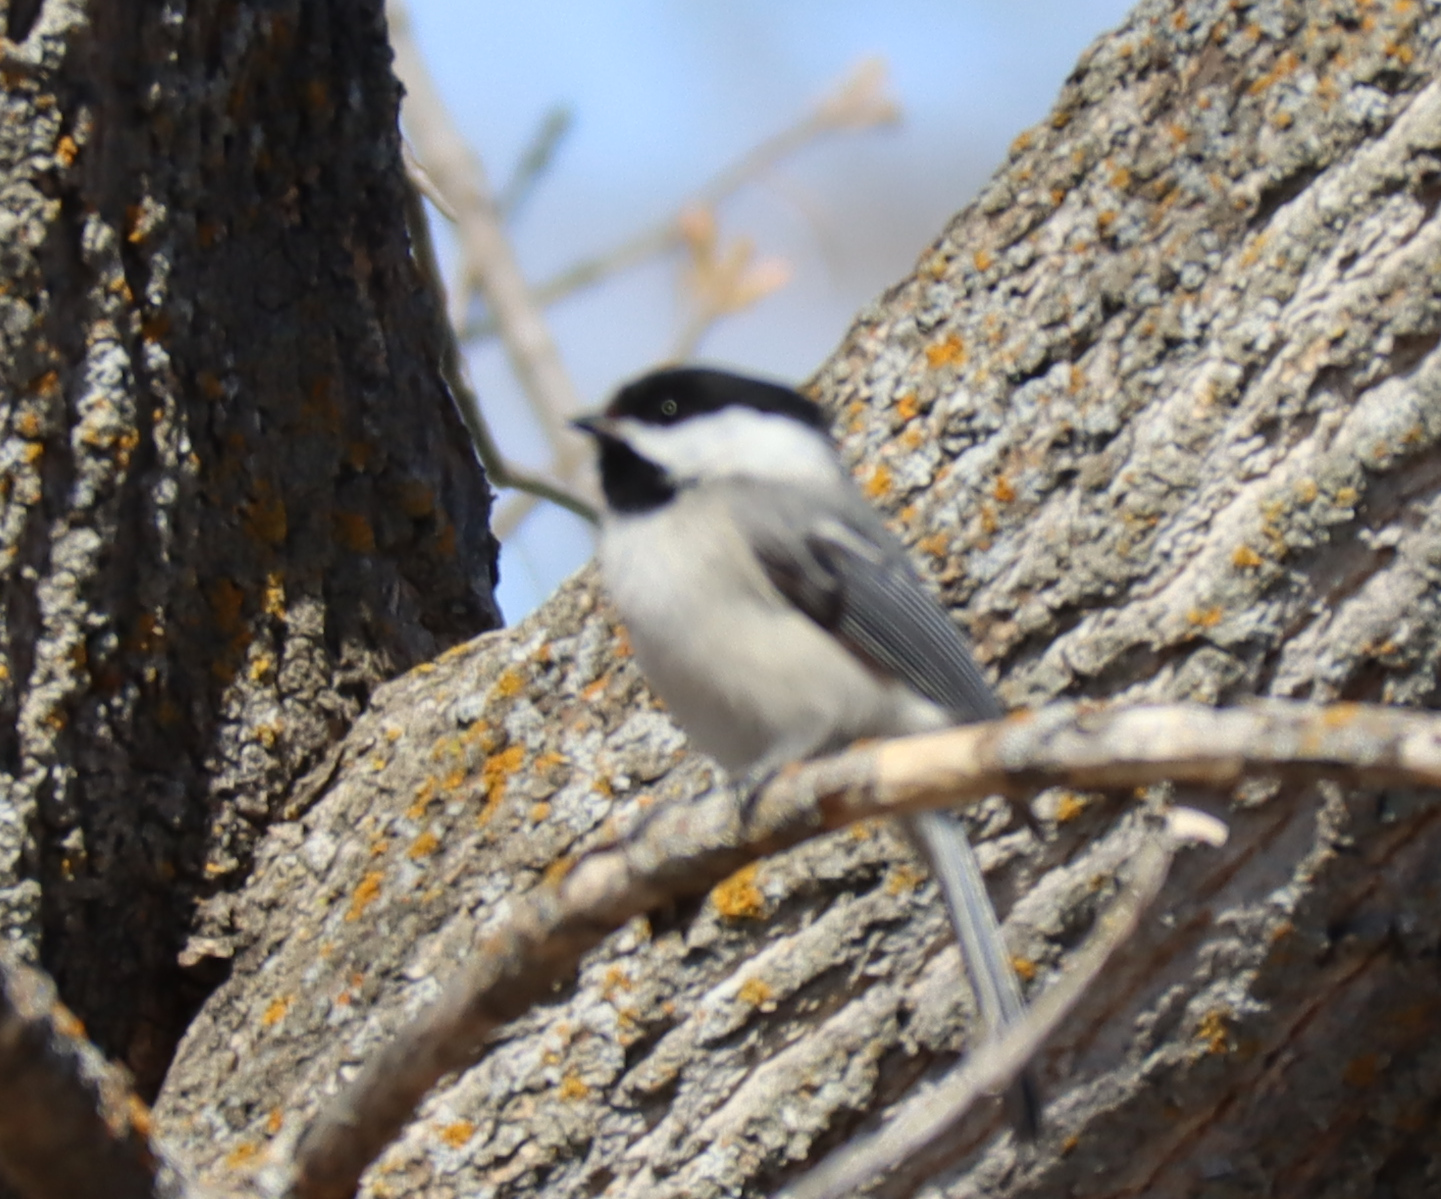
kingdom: Animalia
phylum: Chordata
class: Aves
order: Passeriformes
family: Paridae
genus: Poecile
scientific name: Poecile atricapillus
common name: Black-capped chickadee
